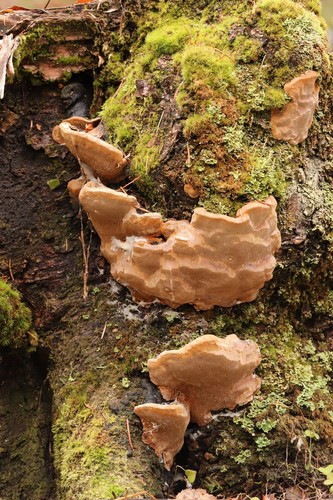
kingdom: Fungi
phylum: Basidiomycota
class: Agaricomycetes
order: Hymenochaetales
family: Hymenochaetaceae
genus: Phellinus
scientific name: Phellinus igniarius
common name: Willow bracket
